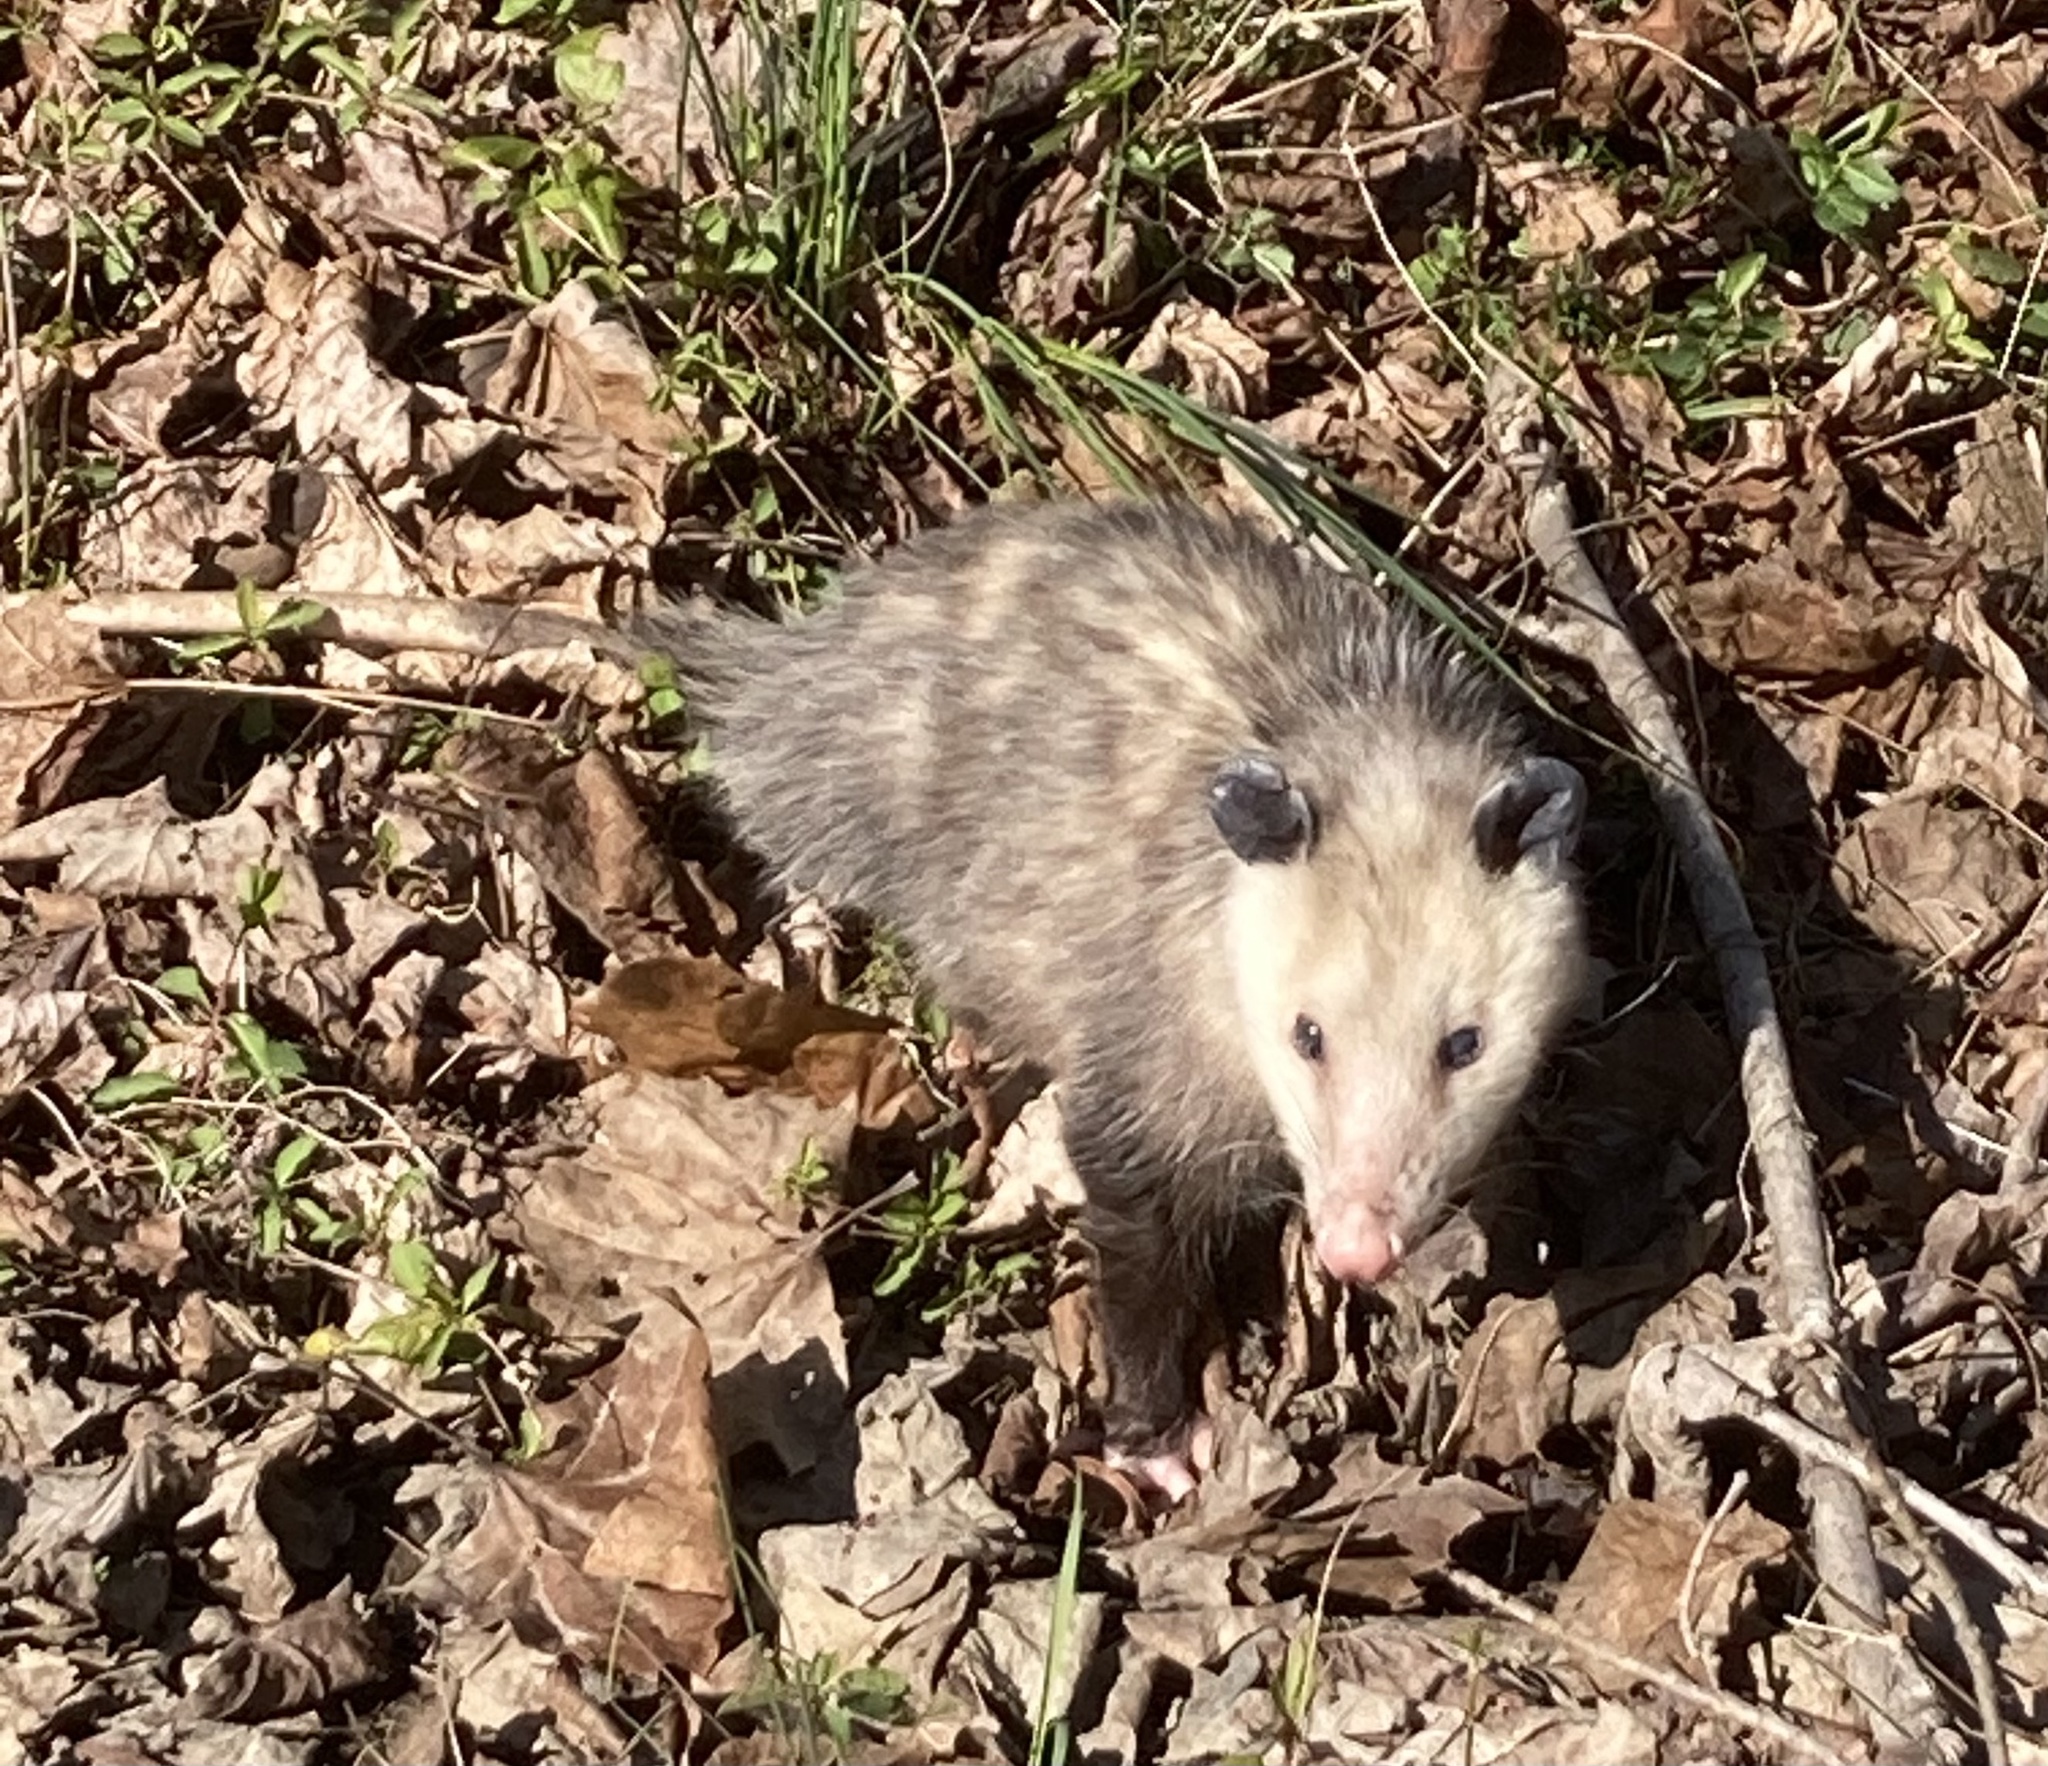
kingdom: Animalia
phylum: Chordata
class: Mammalia
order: Didelphimorphia
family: Didelphidae
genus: Didelphis
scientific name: Didelphis virginiana
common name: Virginia opossum
